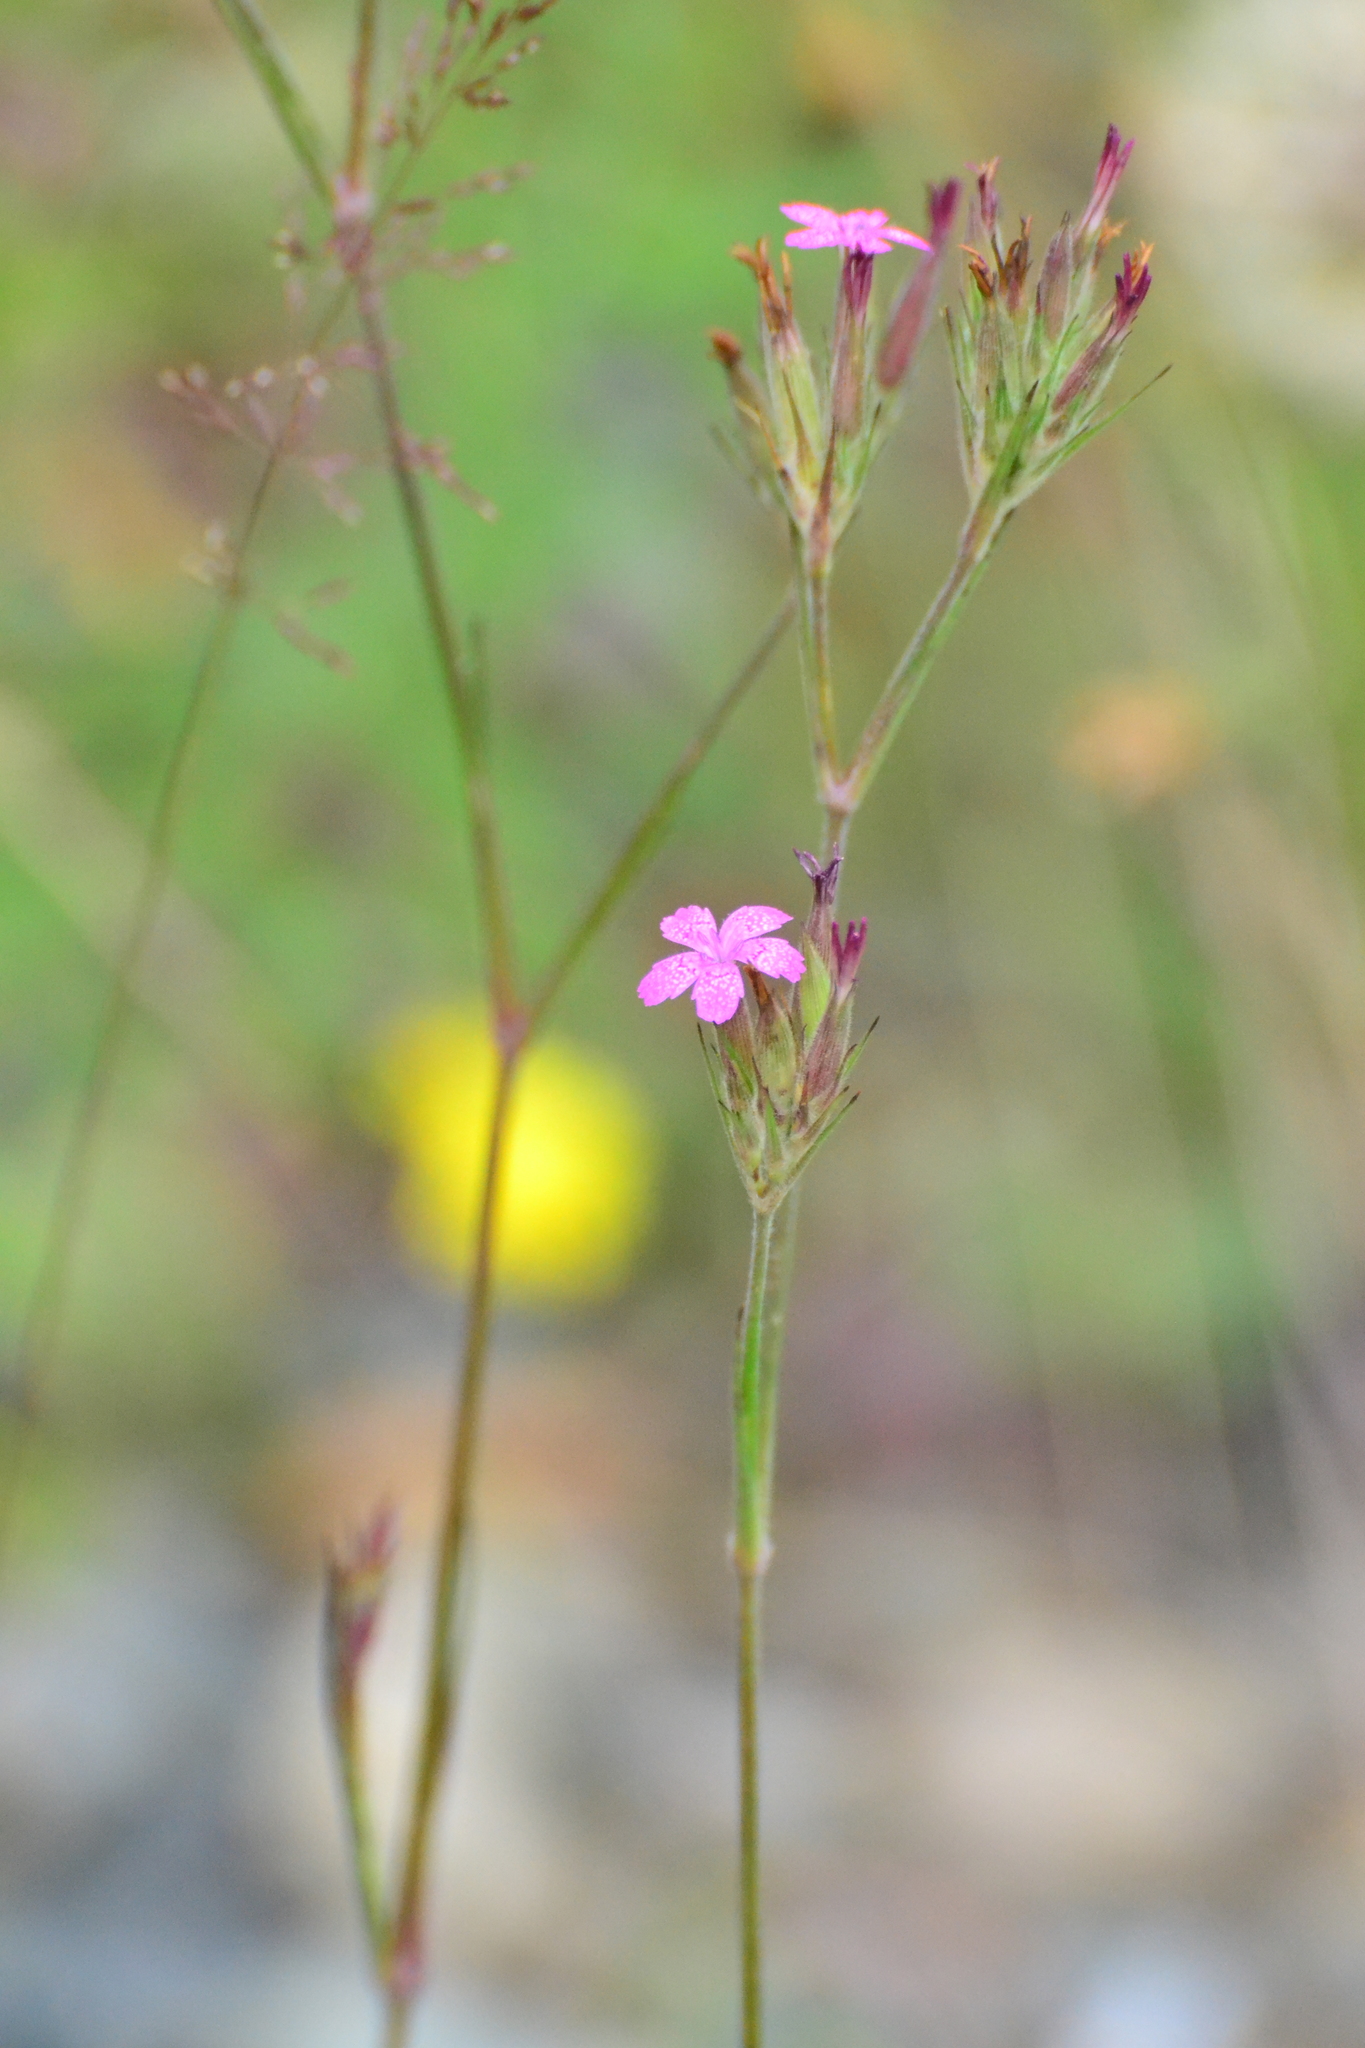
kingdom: Plantae
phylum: Tracheophyta
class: Magnoliopsida
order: Caryophyllales
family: Caryophyllaceae
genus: Dianthus
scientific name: Dianthus armeria
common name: Deptford pink
